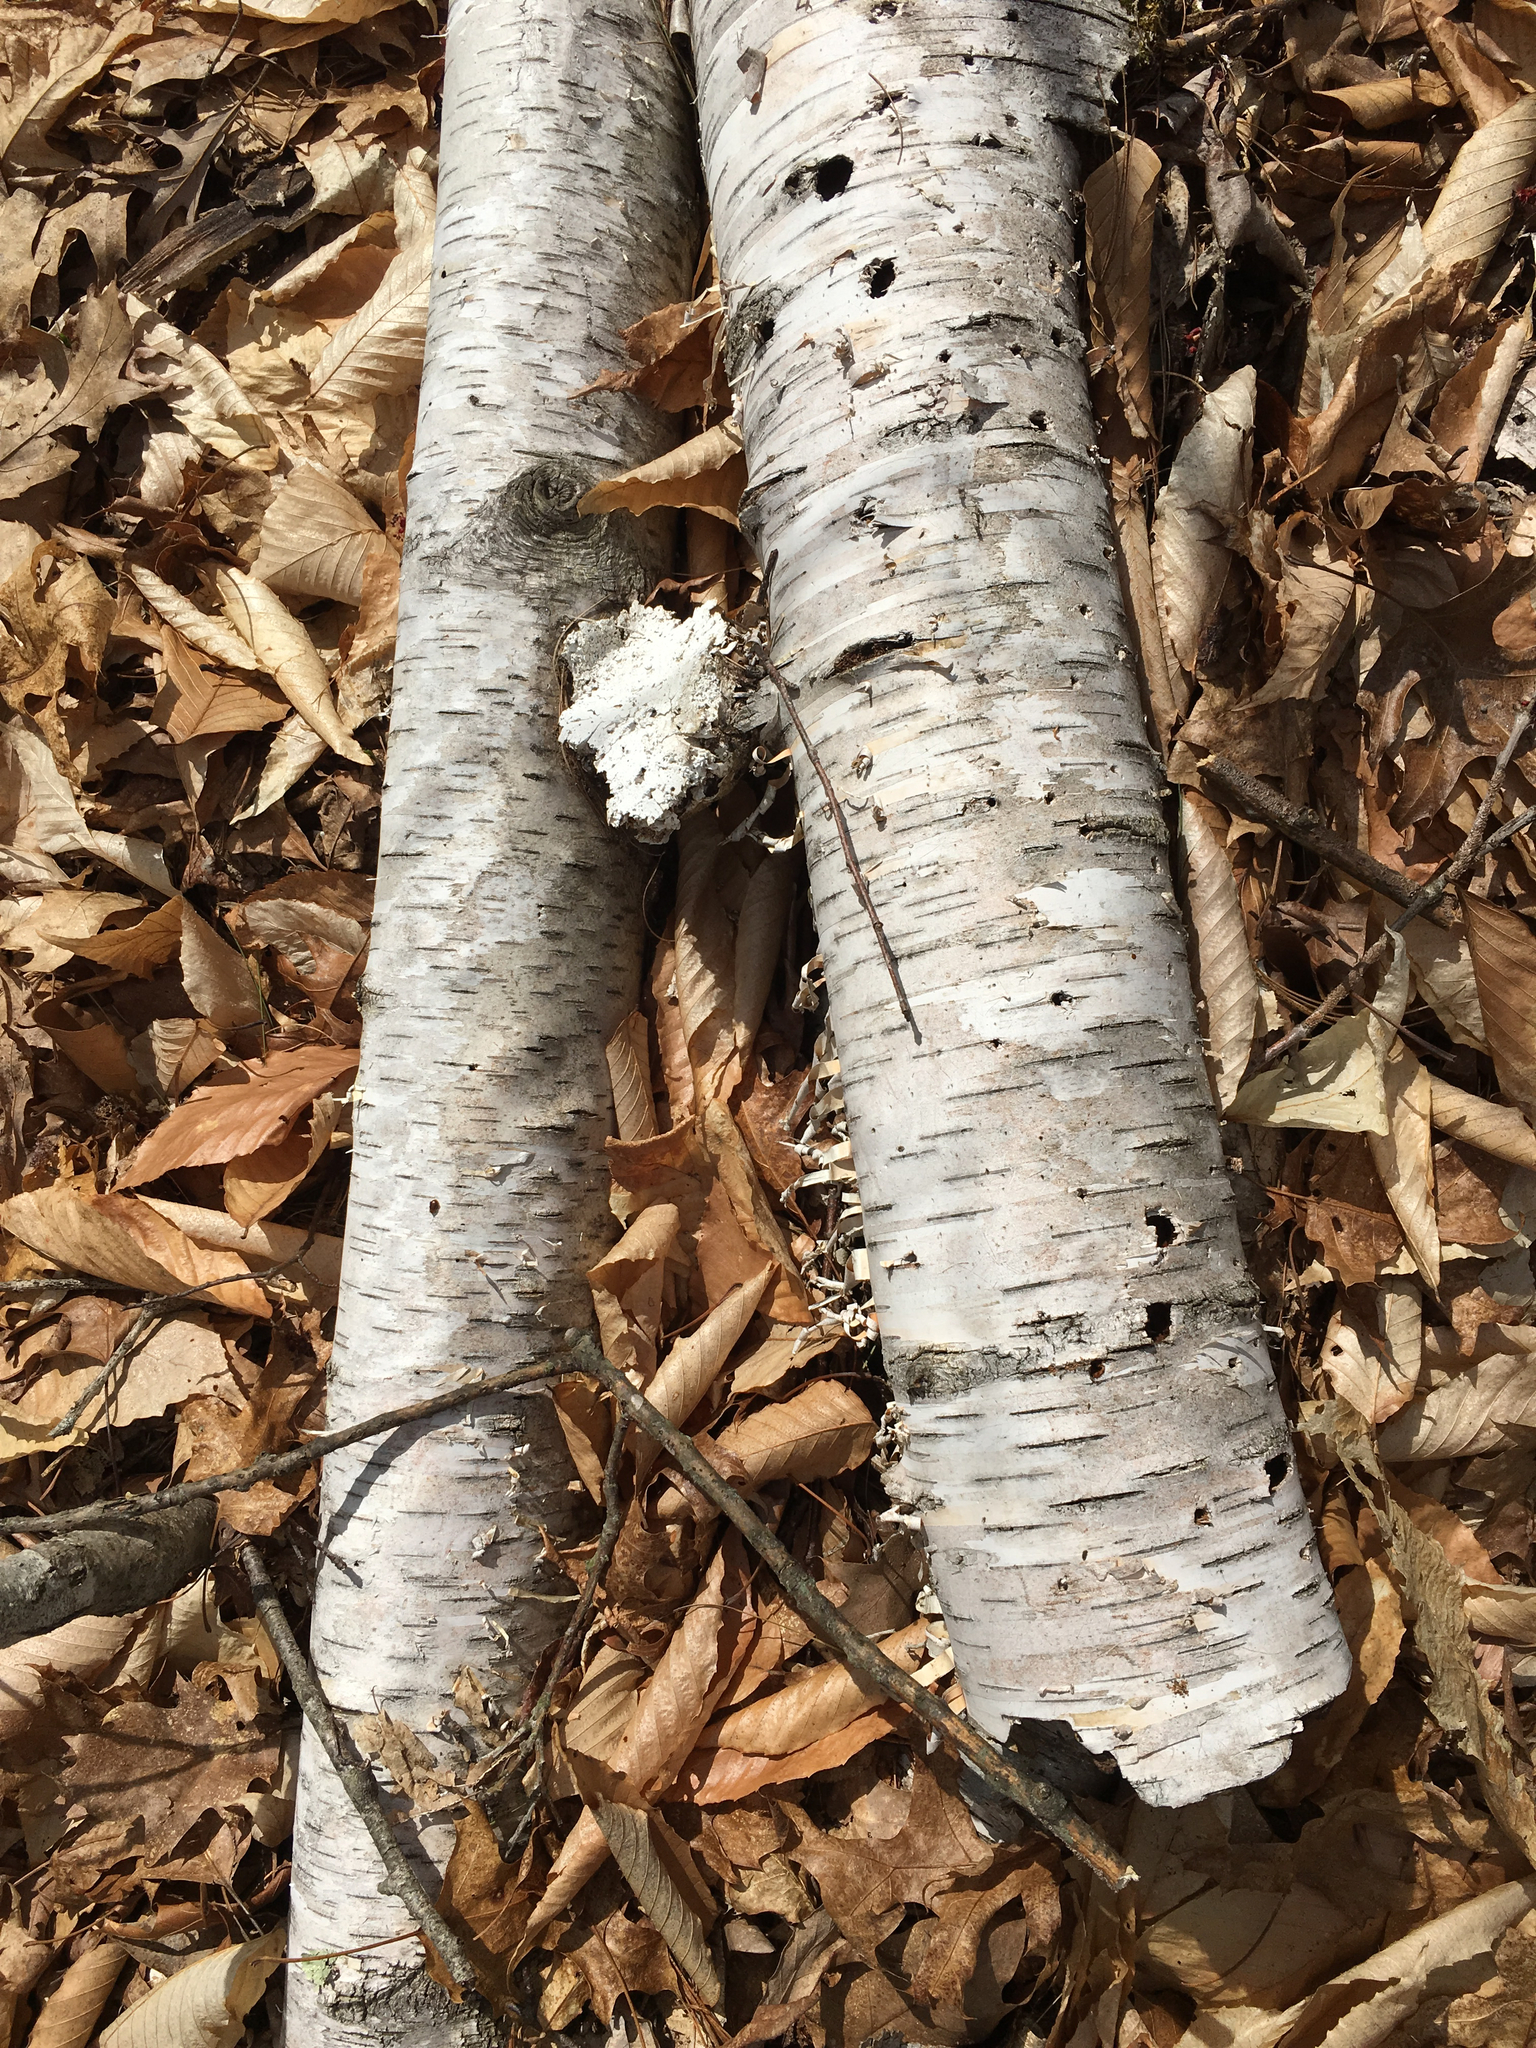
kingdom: Plantae
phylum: Tracheophyta
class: Magnoliopsida
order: Fagales
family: Betulaceae
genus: Betula
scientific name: Betula papyrifera
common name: Paper birch
